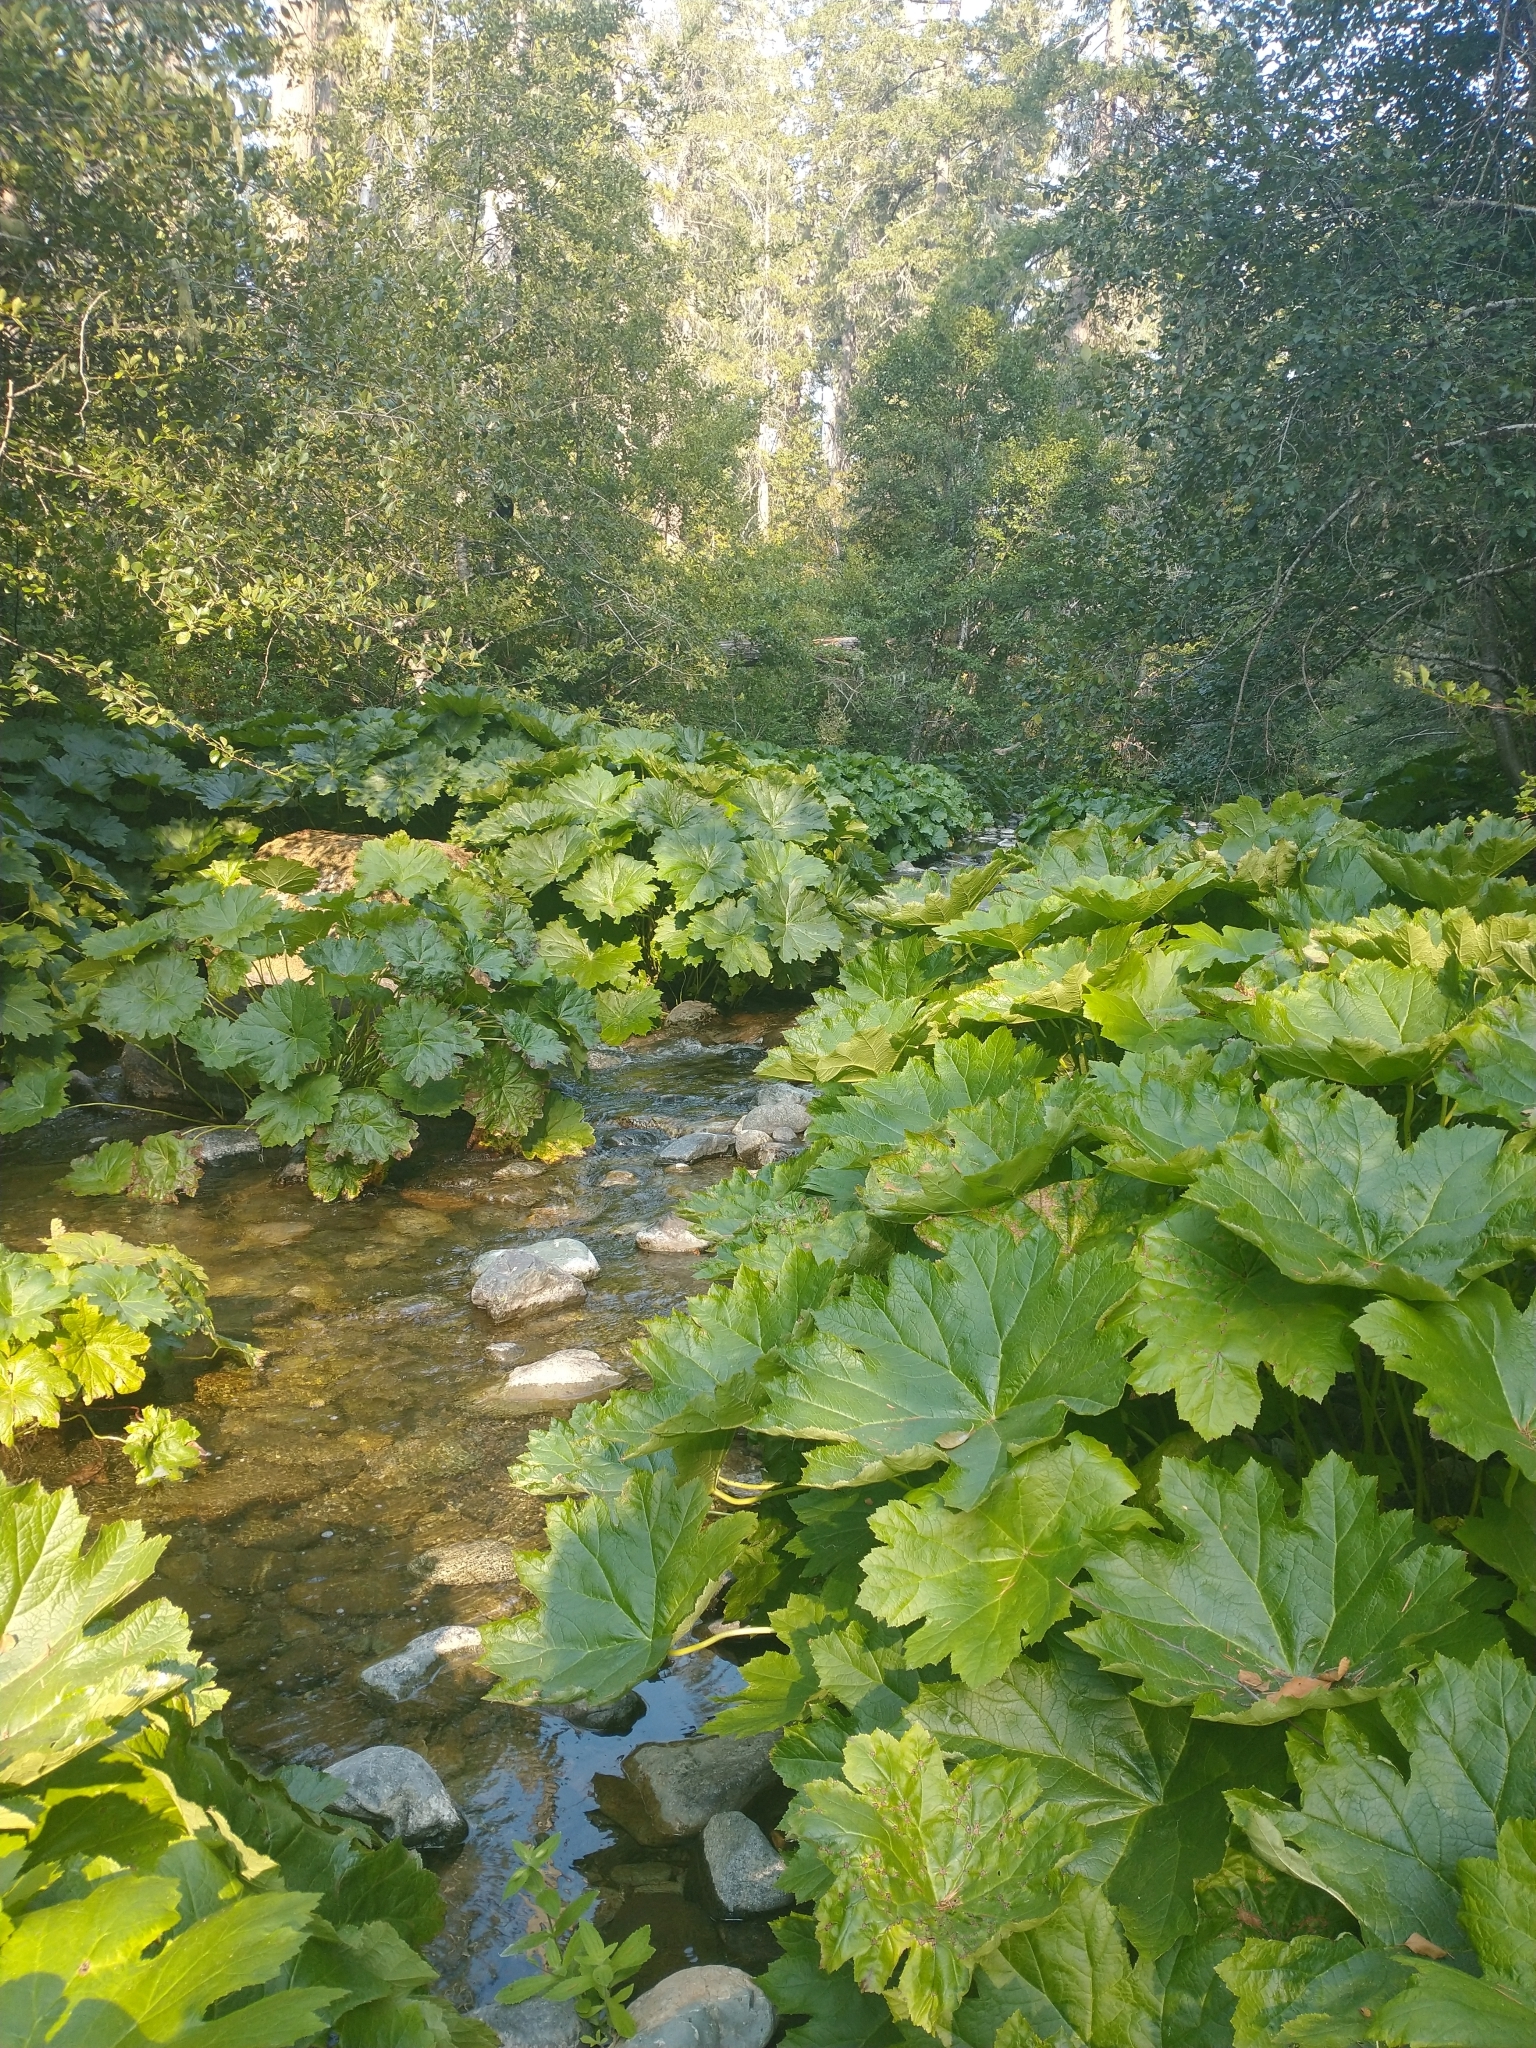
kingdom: Plantae
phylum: Tracheophyta
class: Magnoliopsida
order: Saxifragales
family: Saxifragaceae
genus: Darmera
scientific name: Darmera peltata
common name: Indian-rhubarb
